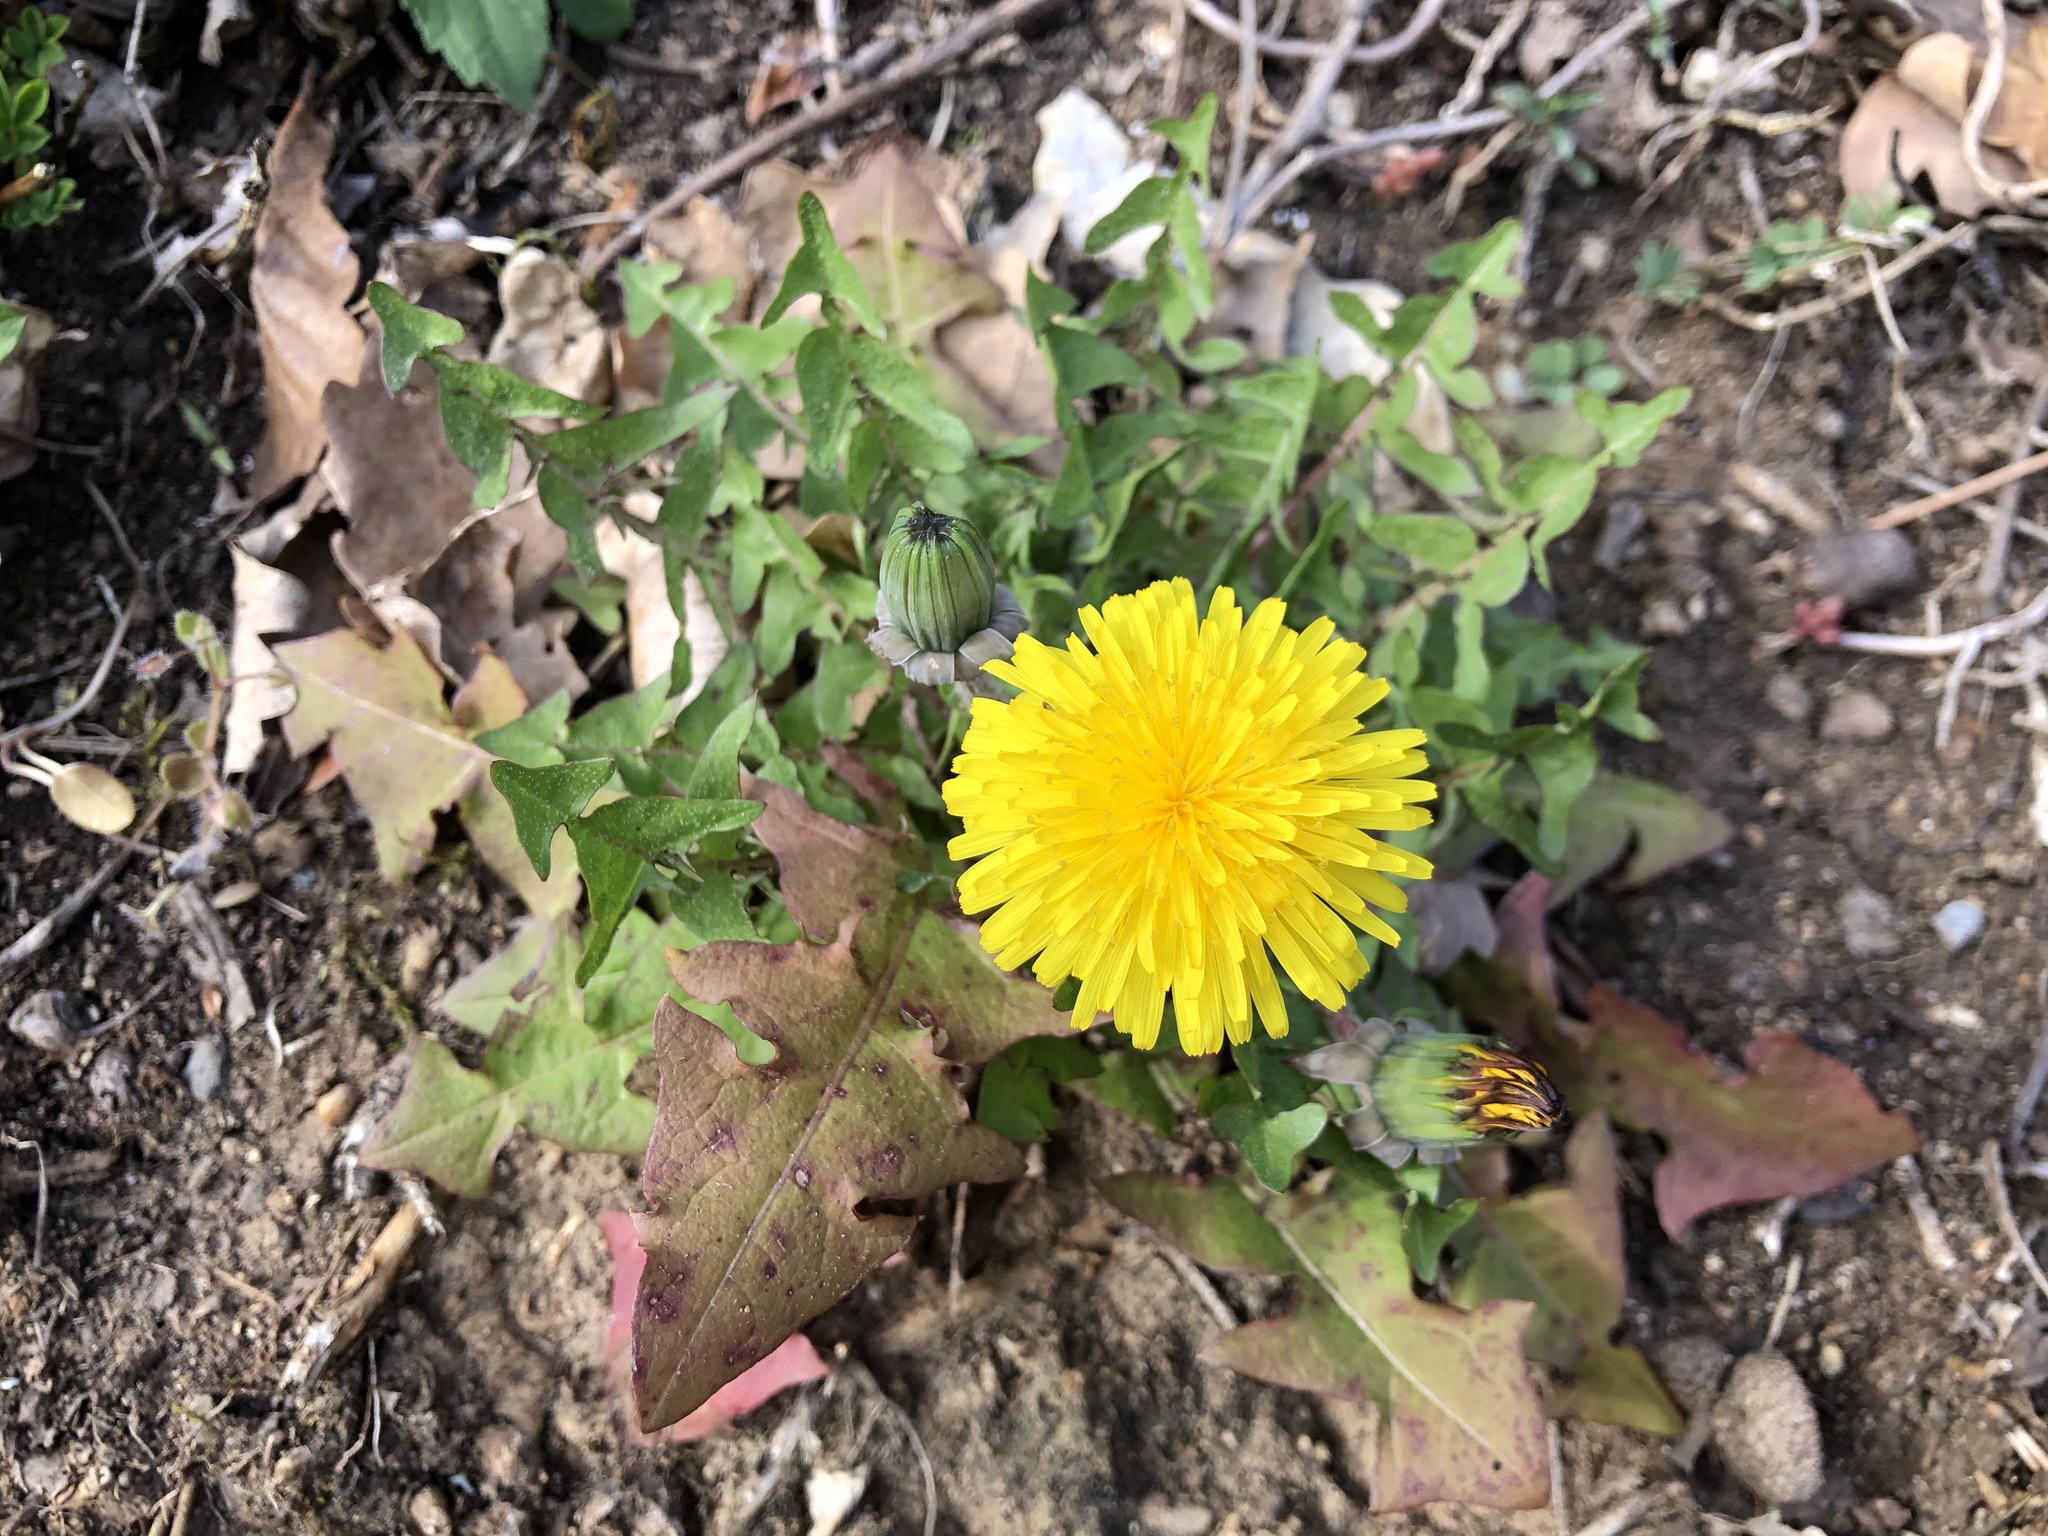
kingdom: Plantae
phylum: Tracheophyta
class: Magnoliopsida
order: Asterales
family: Asteraceae
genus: Taraxacum
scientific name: Taraxacum officinale
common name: Common dandelion
